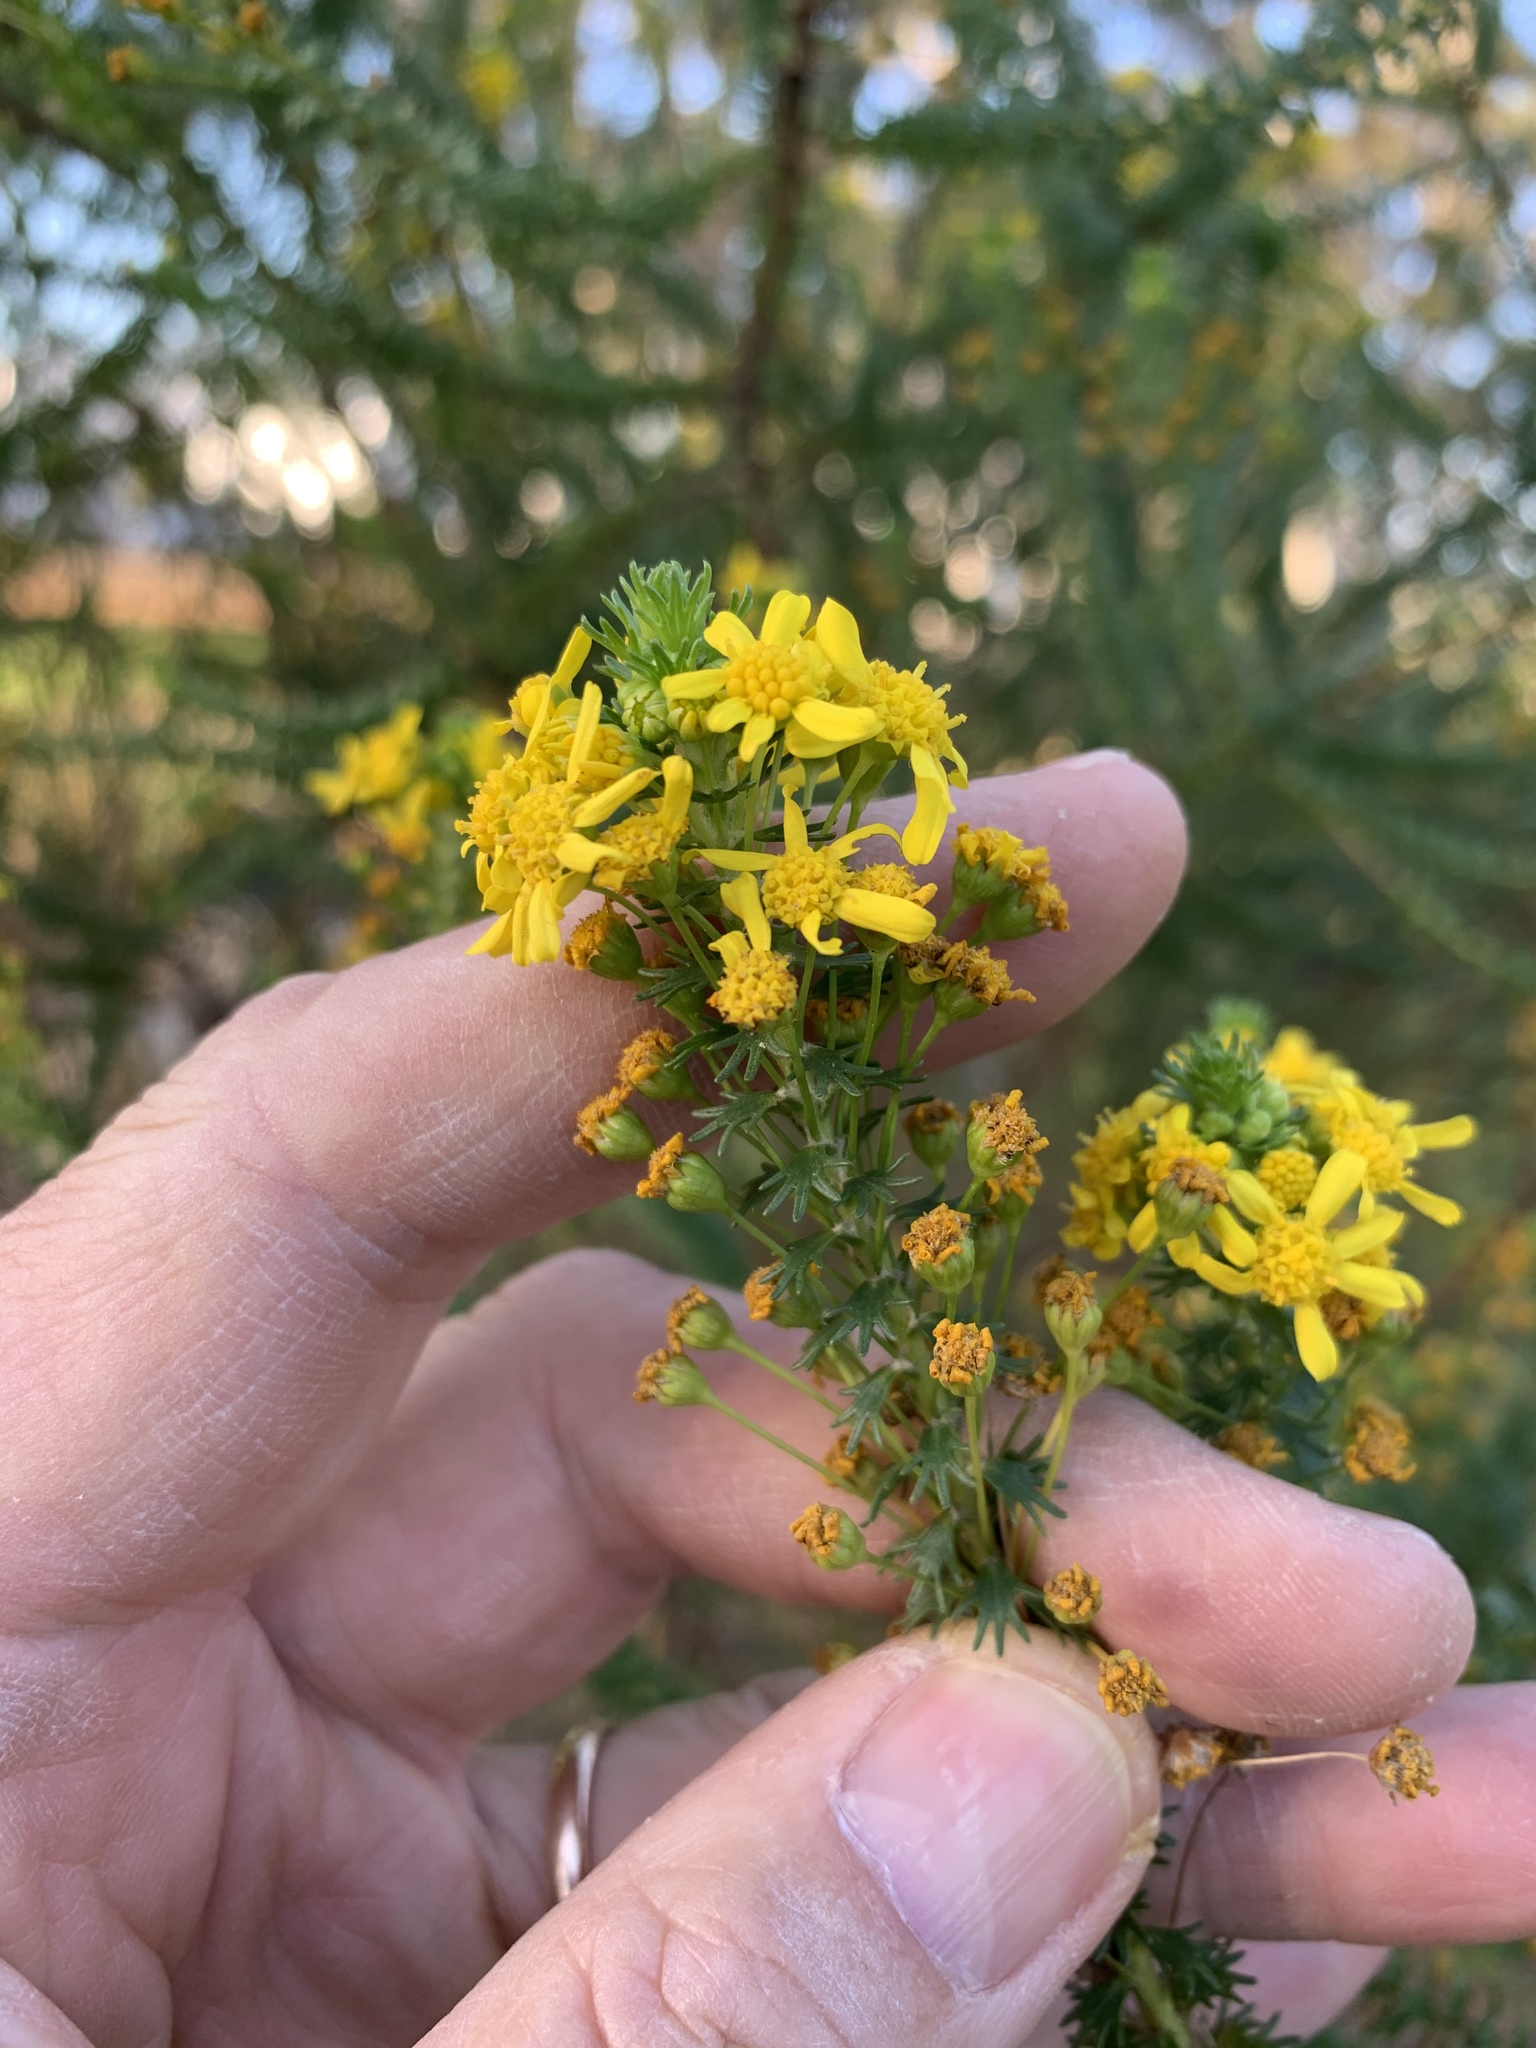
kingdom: Plantae
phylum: Tracheophyta
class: Magnoliopsida
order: Asterales
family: Asteraceae
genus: Euryops
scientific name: Euryops virgineus
